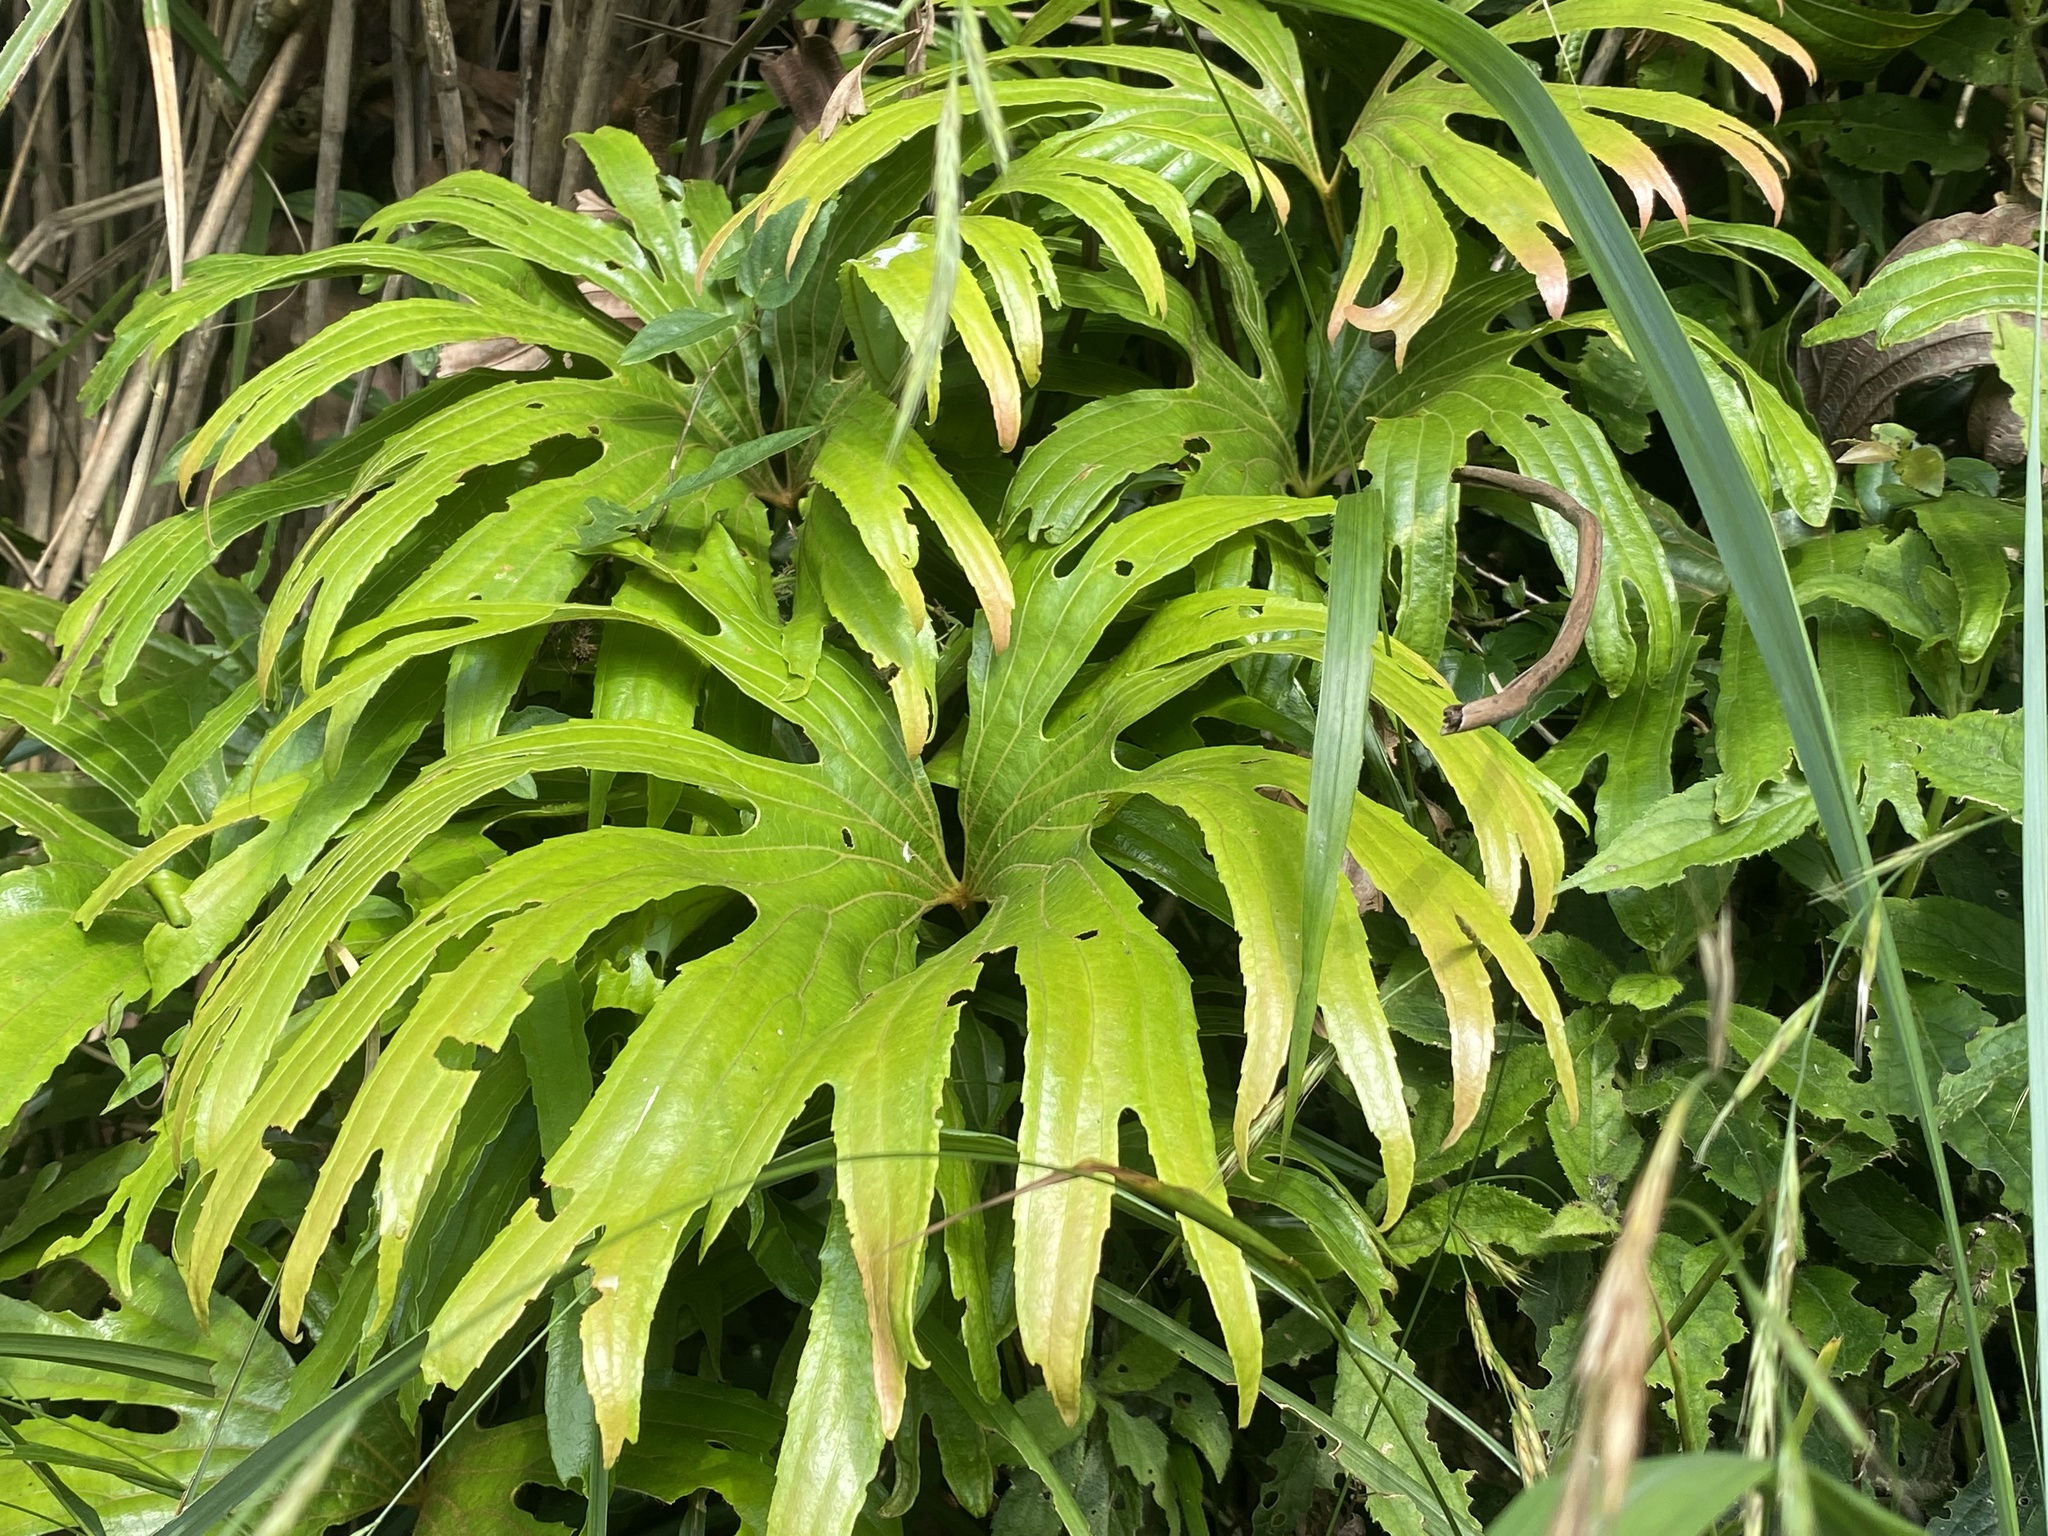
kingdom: Plantae
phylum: Tracheophyta
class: Polypodiopsida
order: Gleicheniales
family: Dipteridaceae
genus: Dipteris
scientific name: Dipteris conjugata
